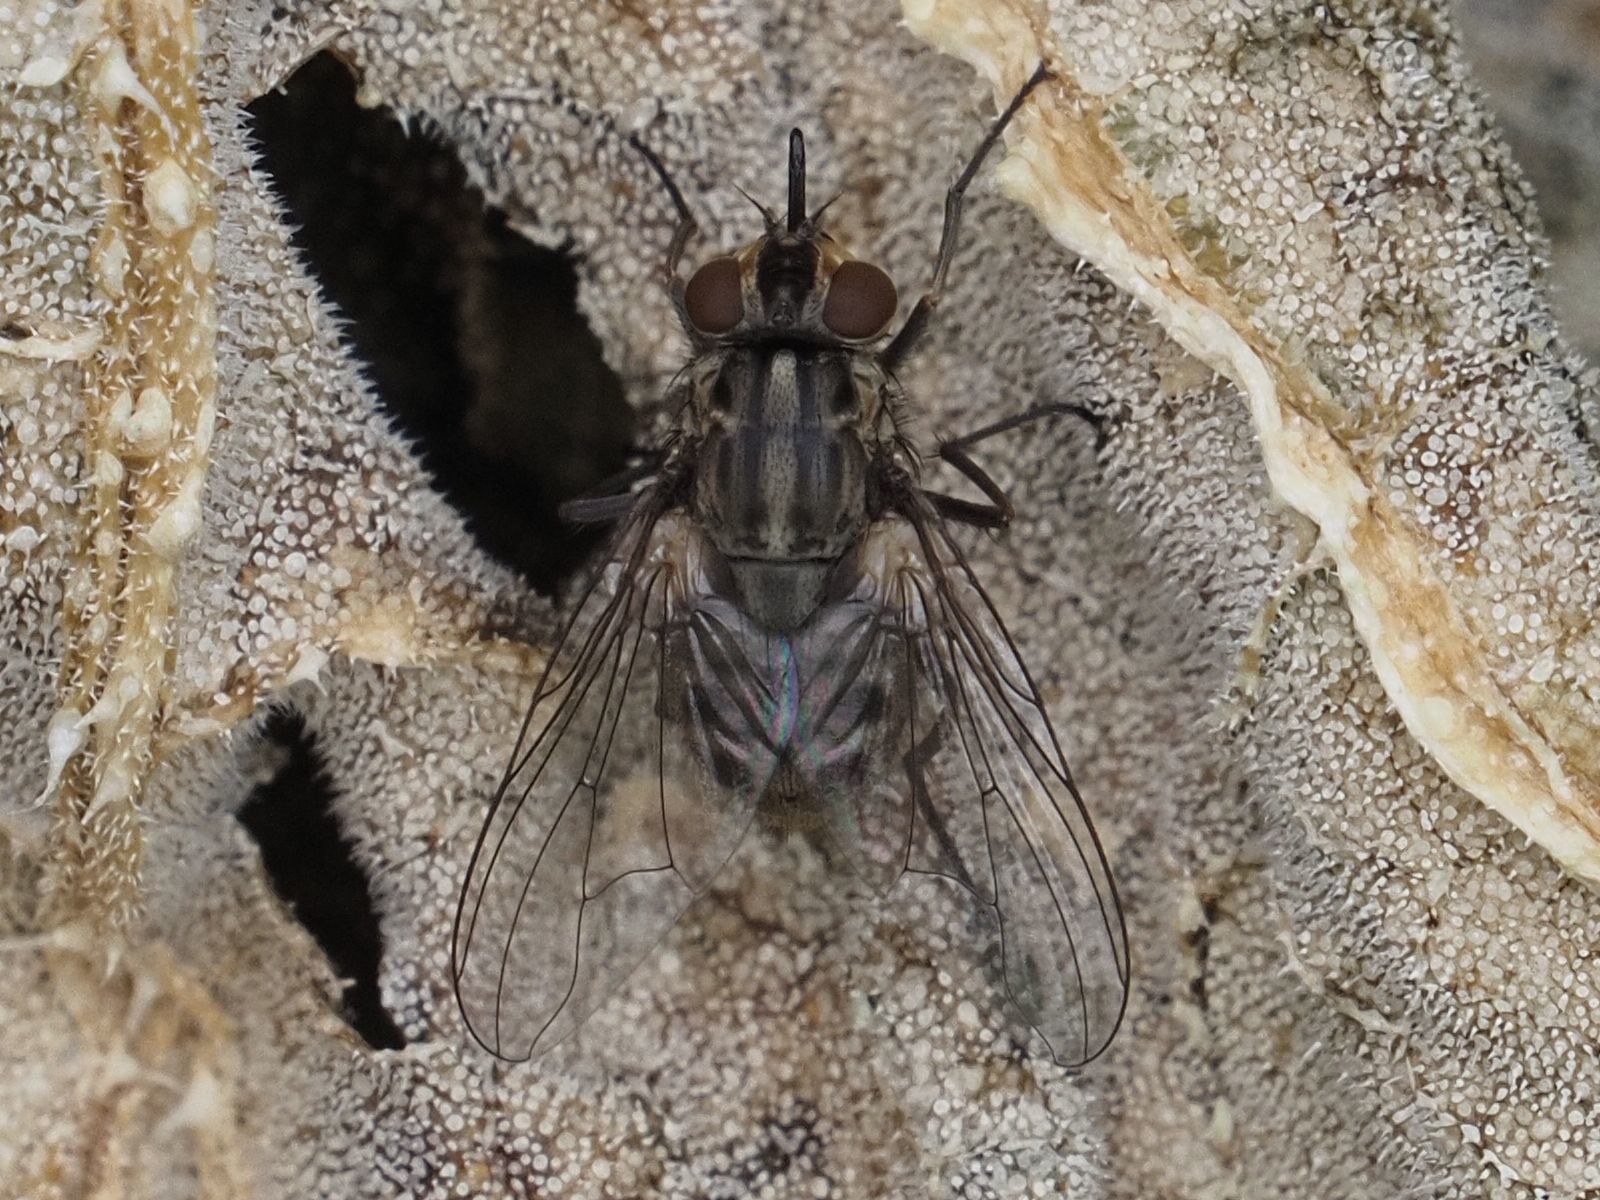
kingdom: Animalia
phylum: Arthropoda
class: Insecta
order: Diptera
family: Muscidae
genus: Stomoxys
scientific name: Stomoxys calcitrans
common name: Stable fly
